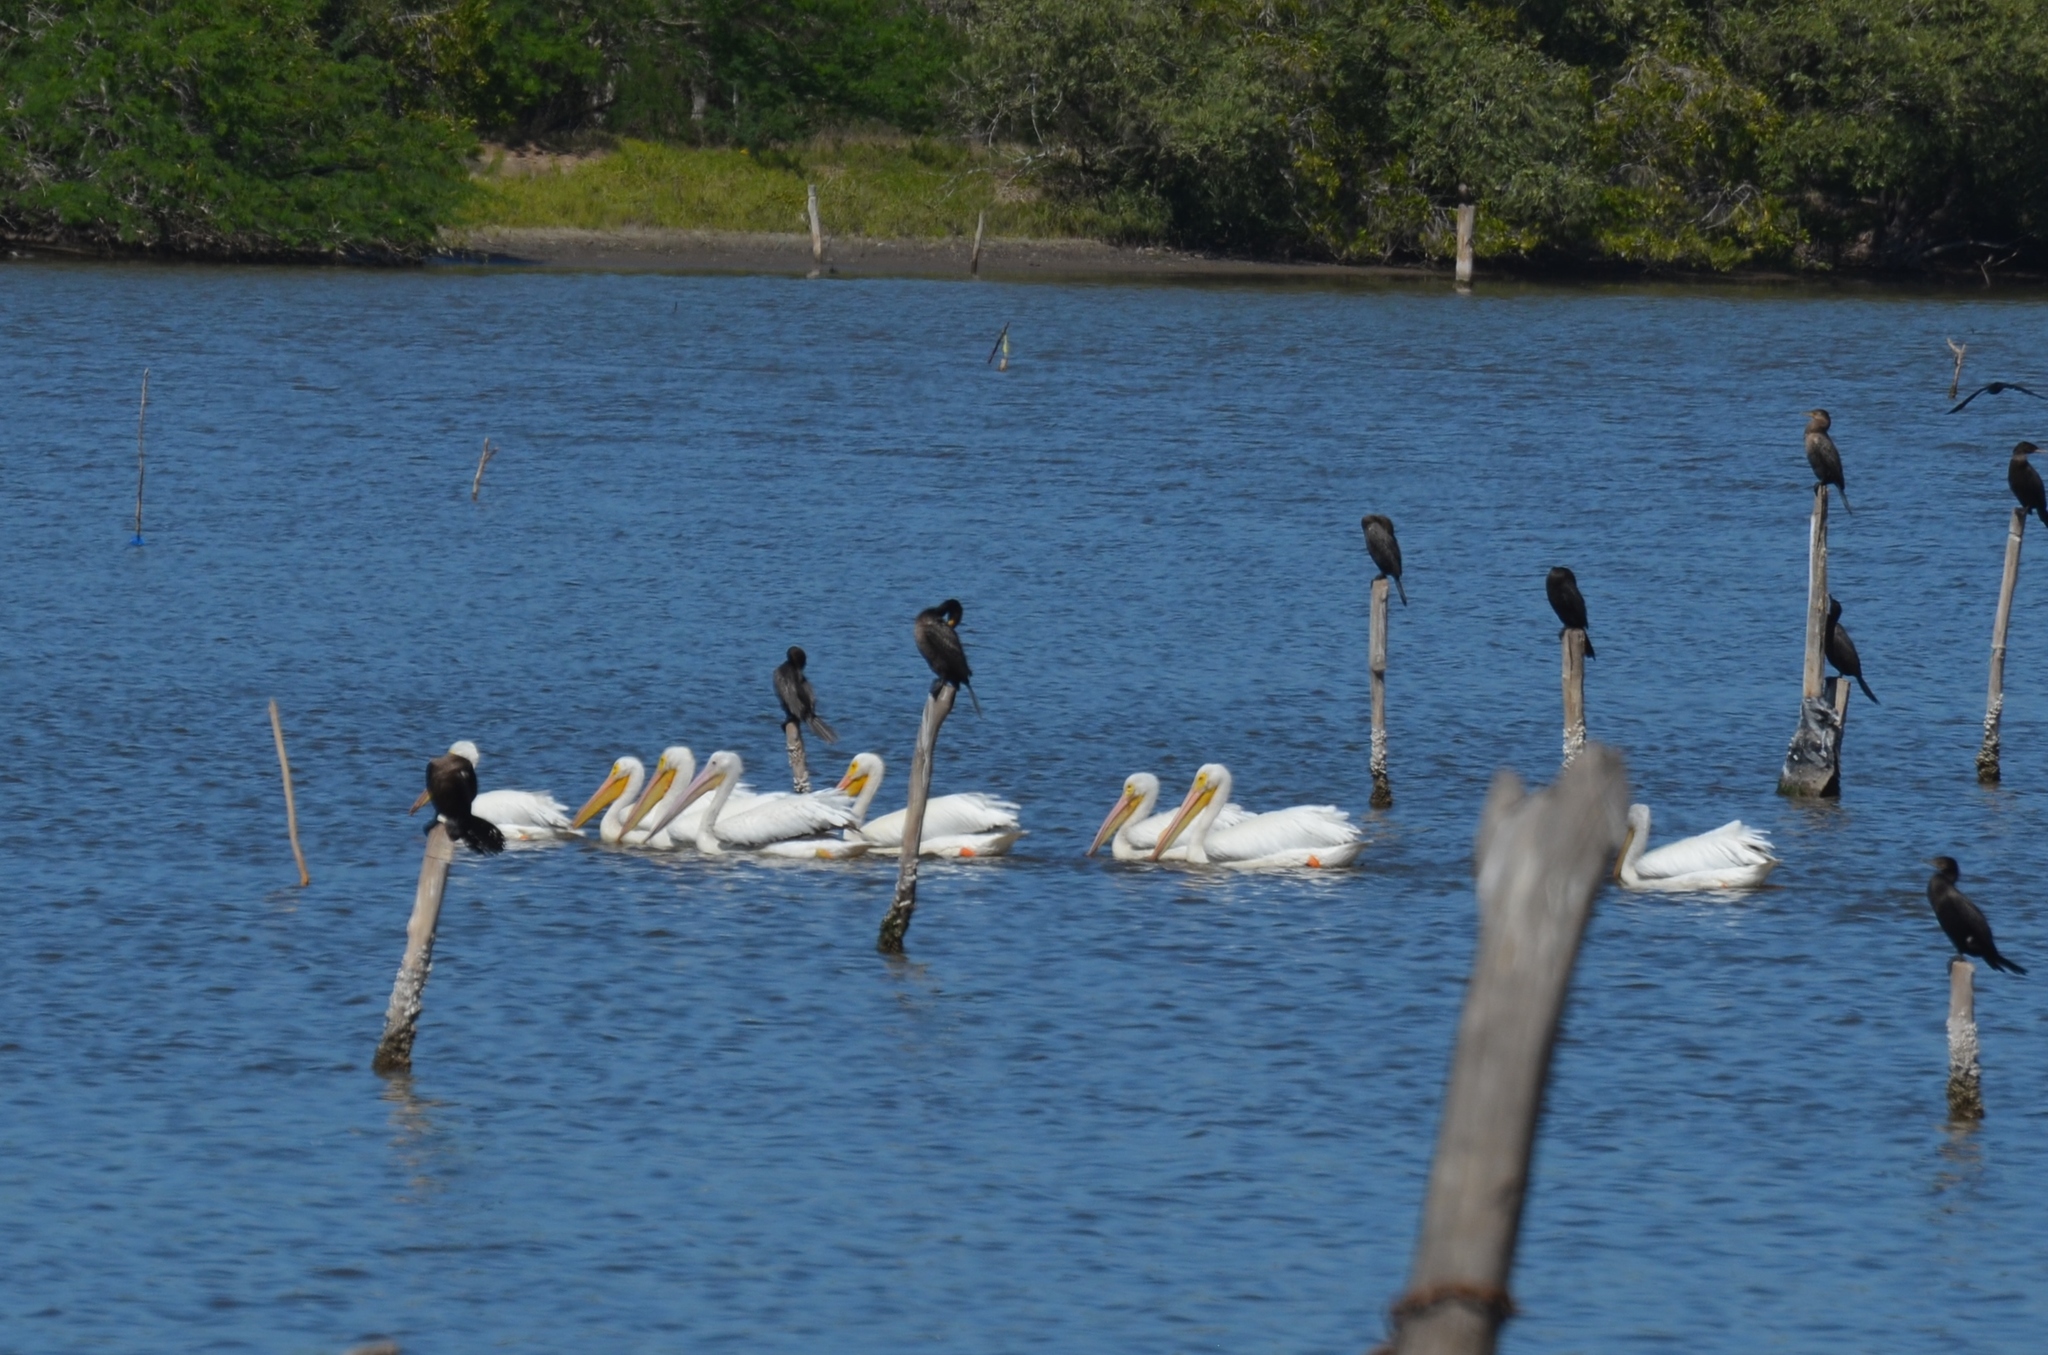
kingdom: Animalia
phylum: Chordata
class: Aves
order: Pelecaniformes
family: Pelecanidae
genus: Pelecanus
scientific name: Pelecanus erythrorhynchos
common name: American white pelican
